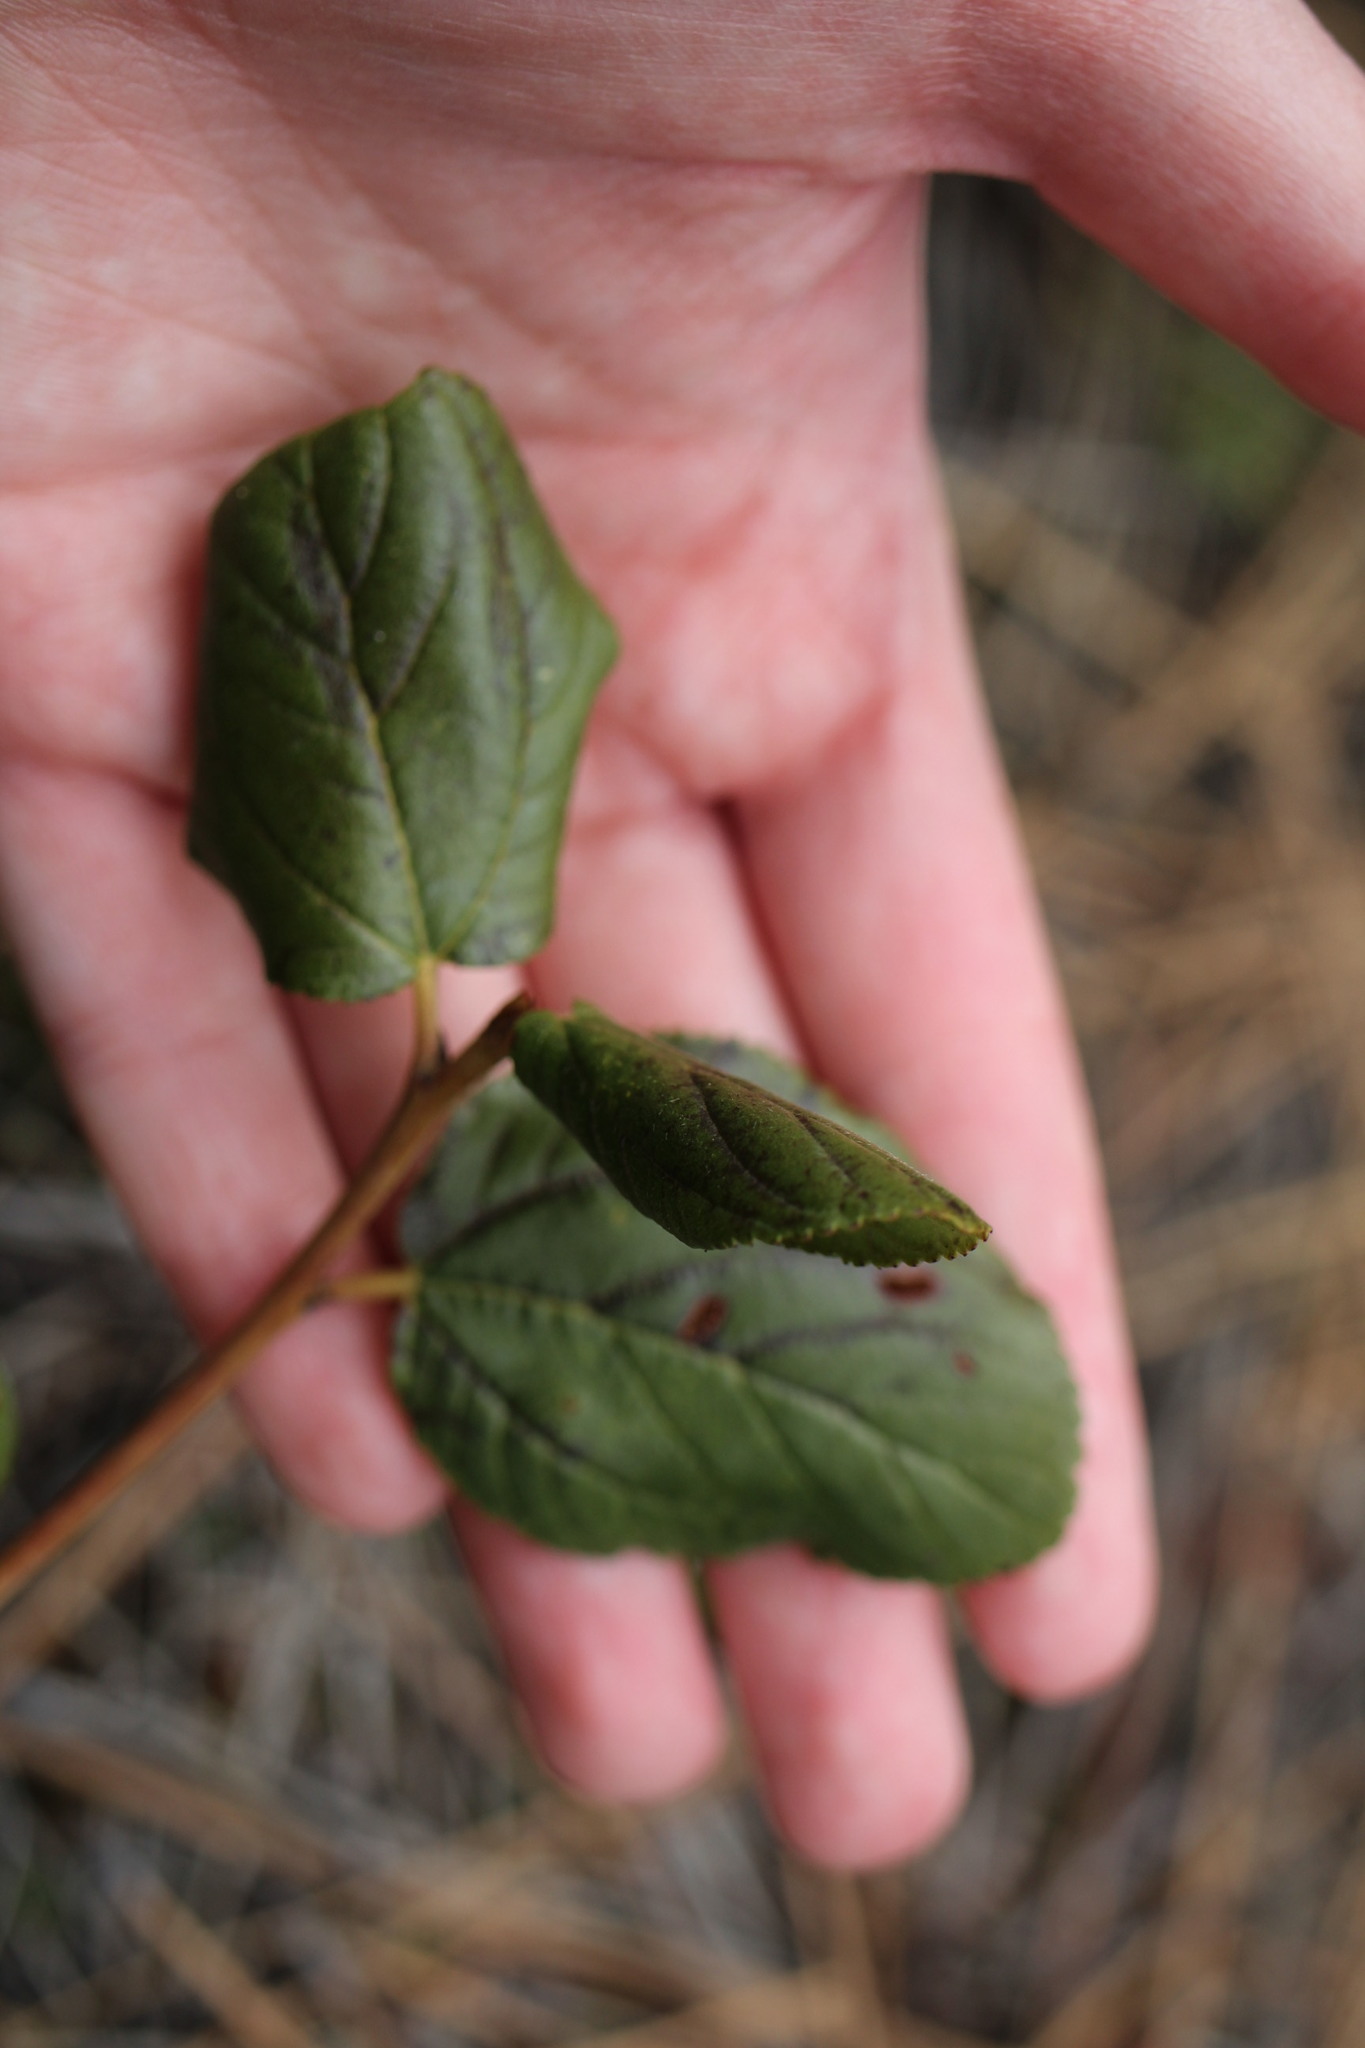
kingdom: Plantae
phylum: Tracheophyta
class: Magnoliopsida
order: Rosales
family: Rhamnaceae
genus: Ceanothus
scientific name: Ceanothus velutinus
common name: Snowbrush
